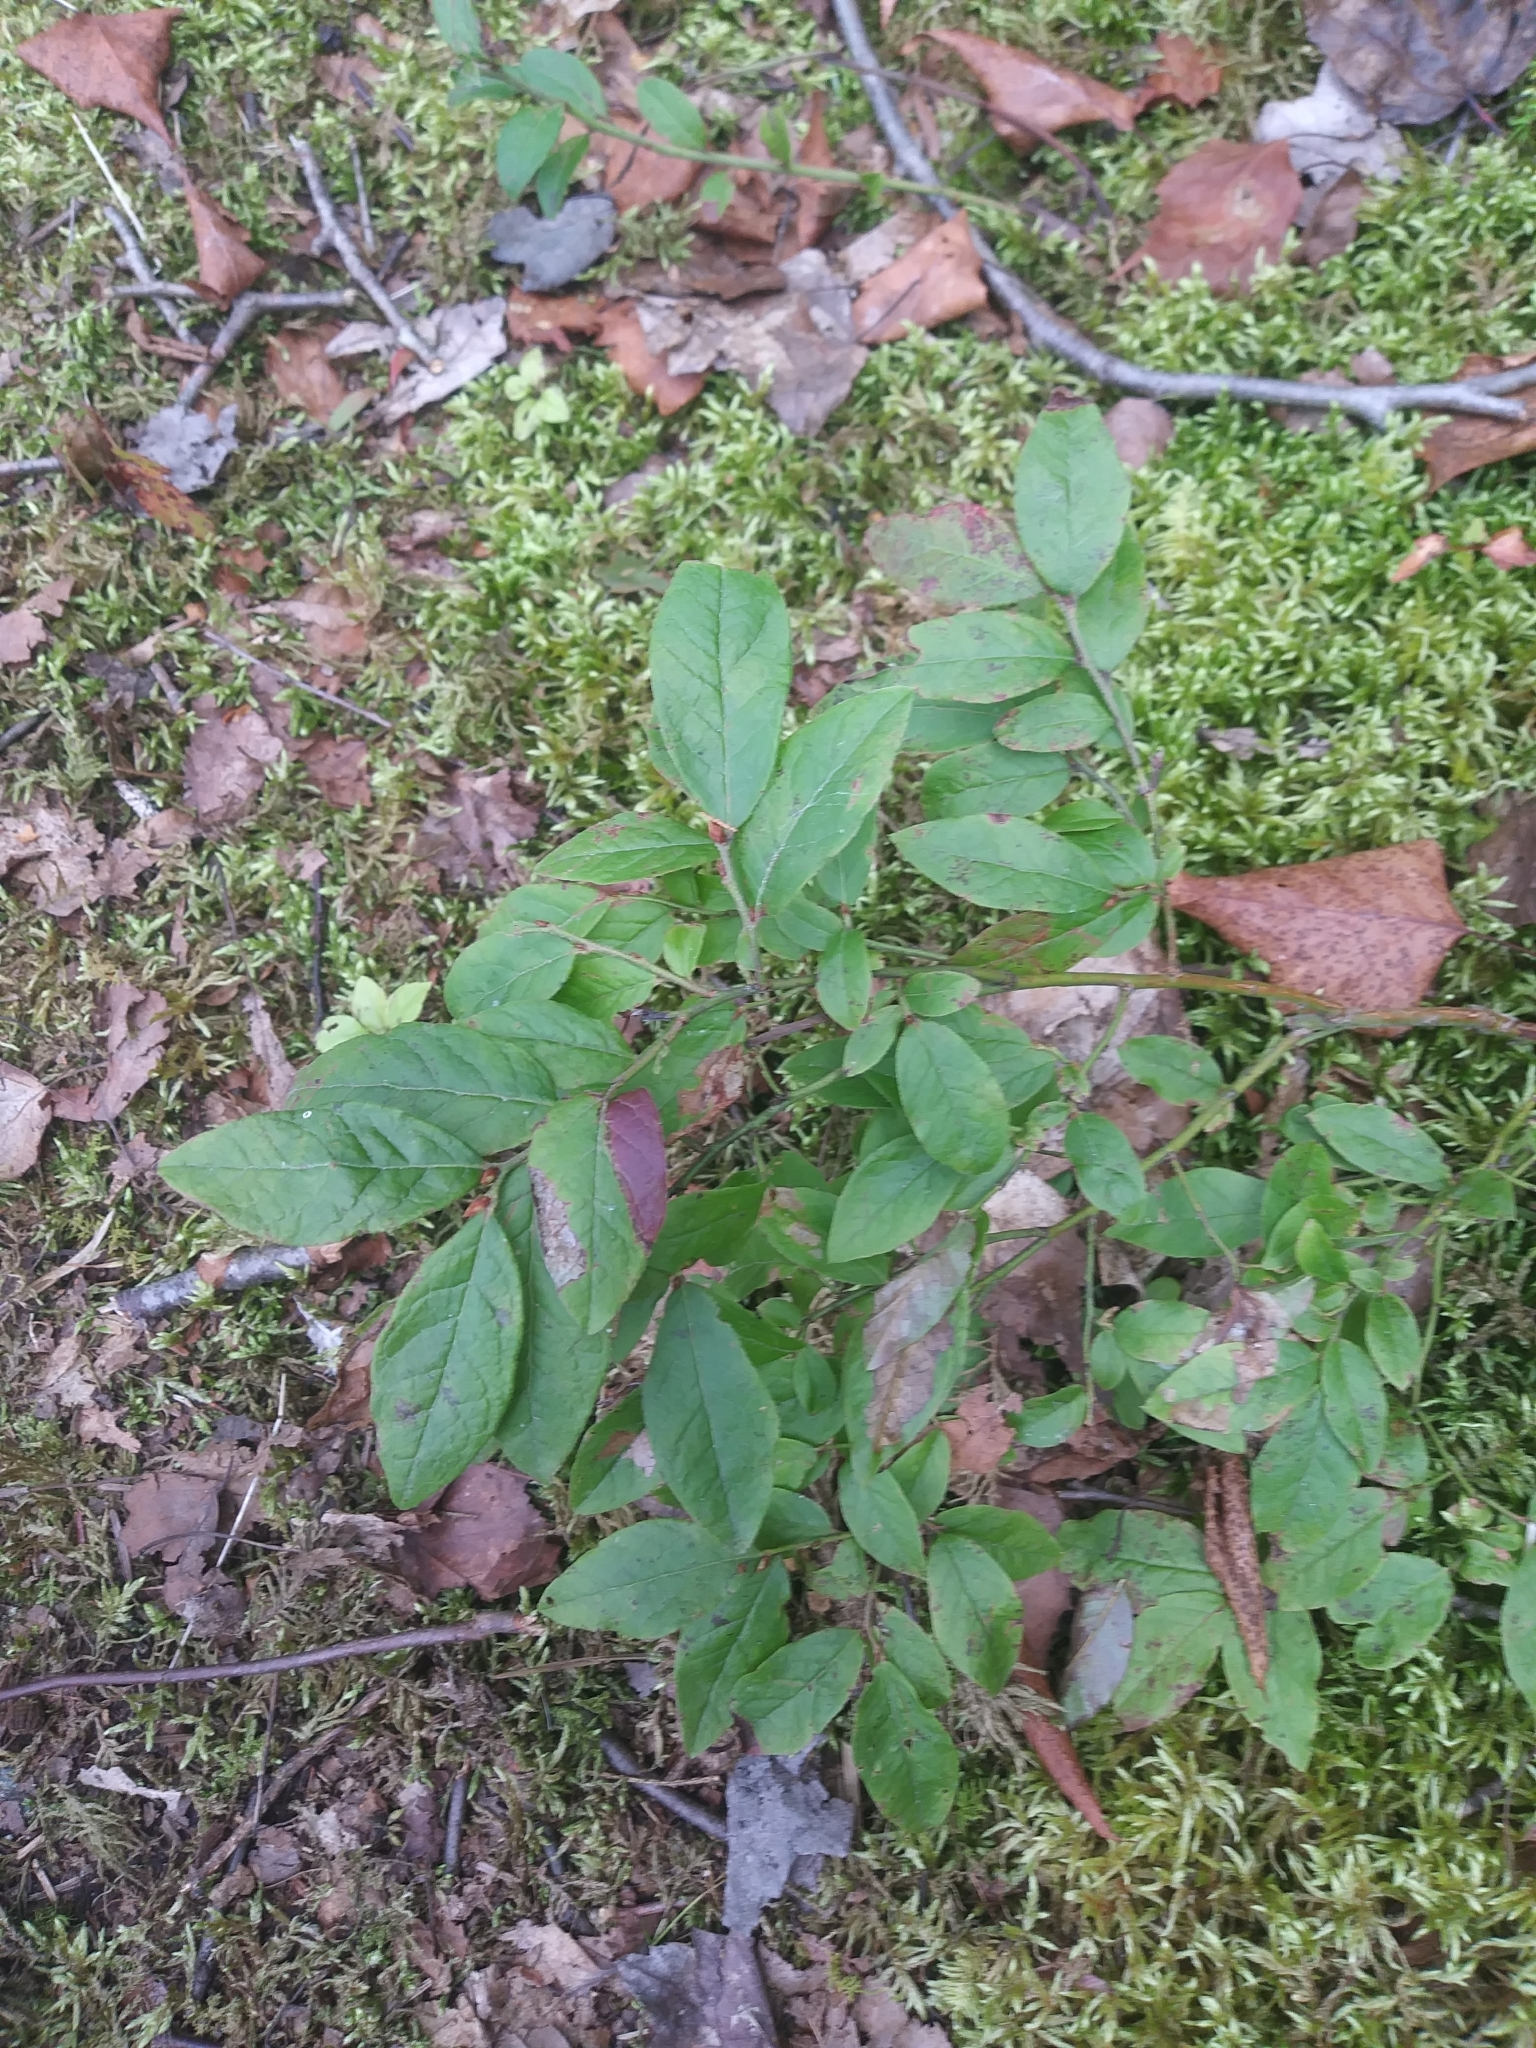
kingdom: Plantae
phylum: Tracheophyta
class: Magnoliopsida
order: Ericales
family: Ericaceae
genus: Vaccinium
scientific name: Vaccinium angustifolium
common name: Early lowbush blueberry
